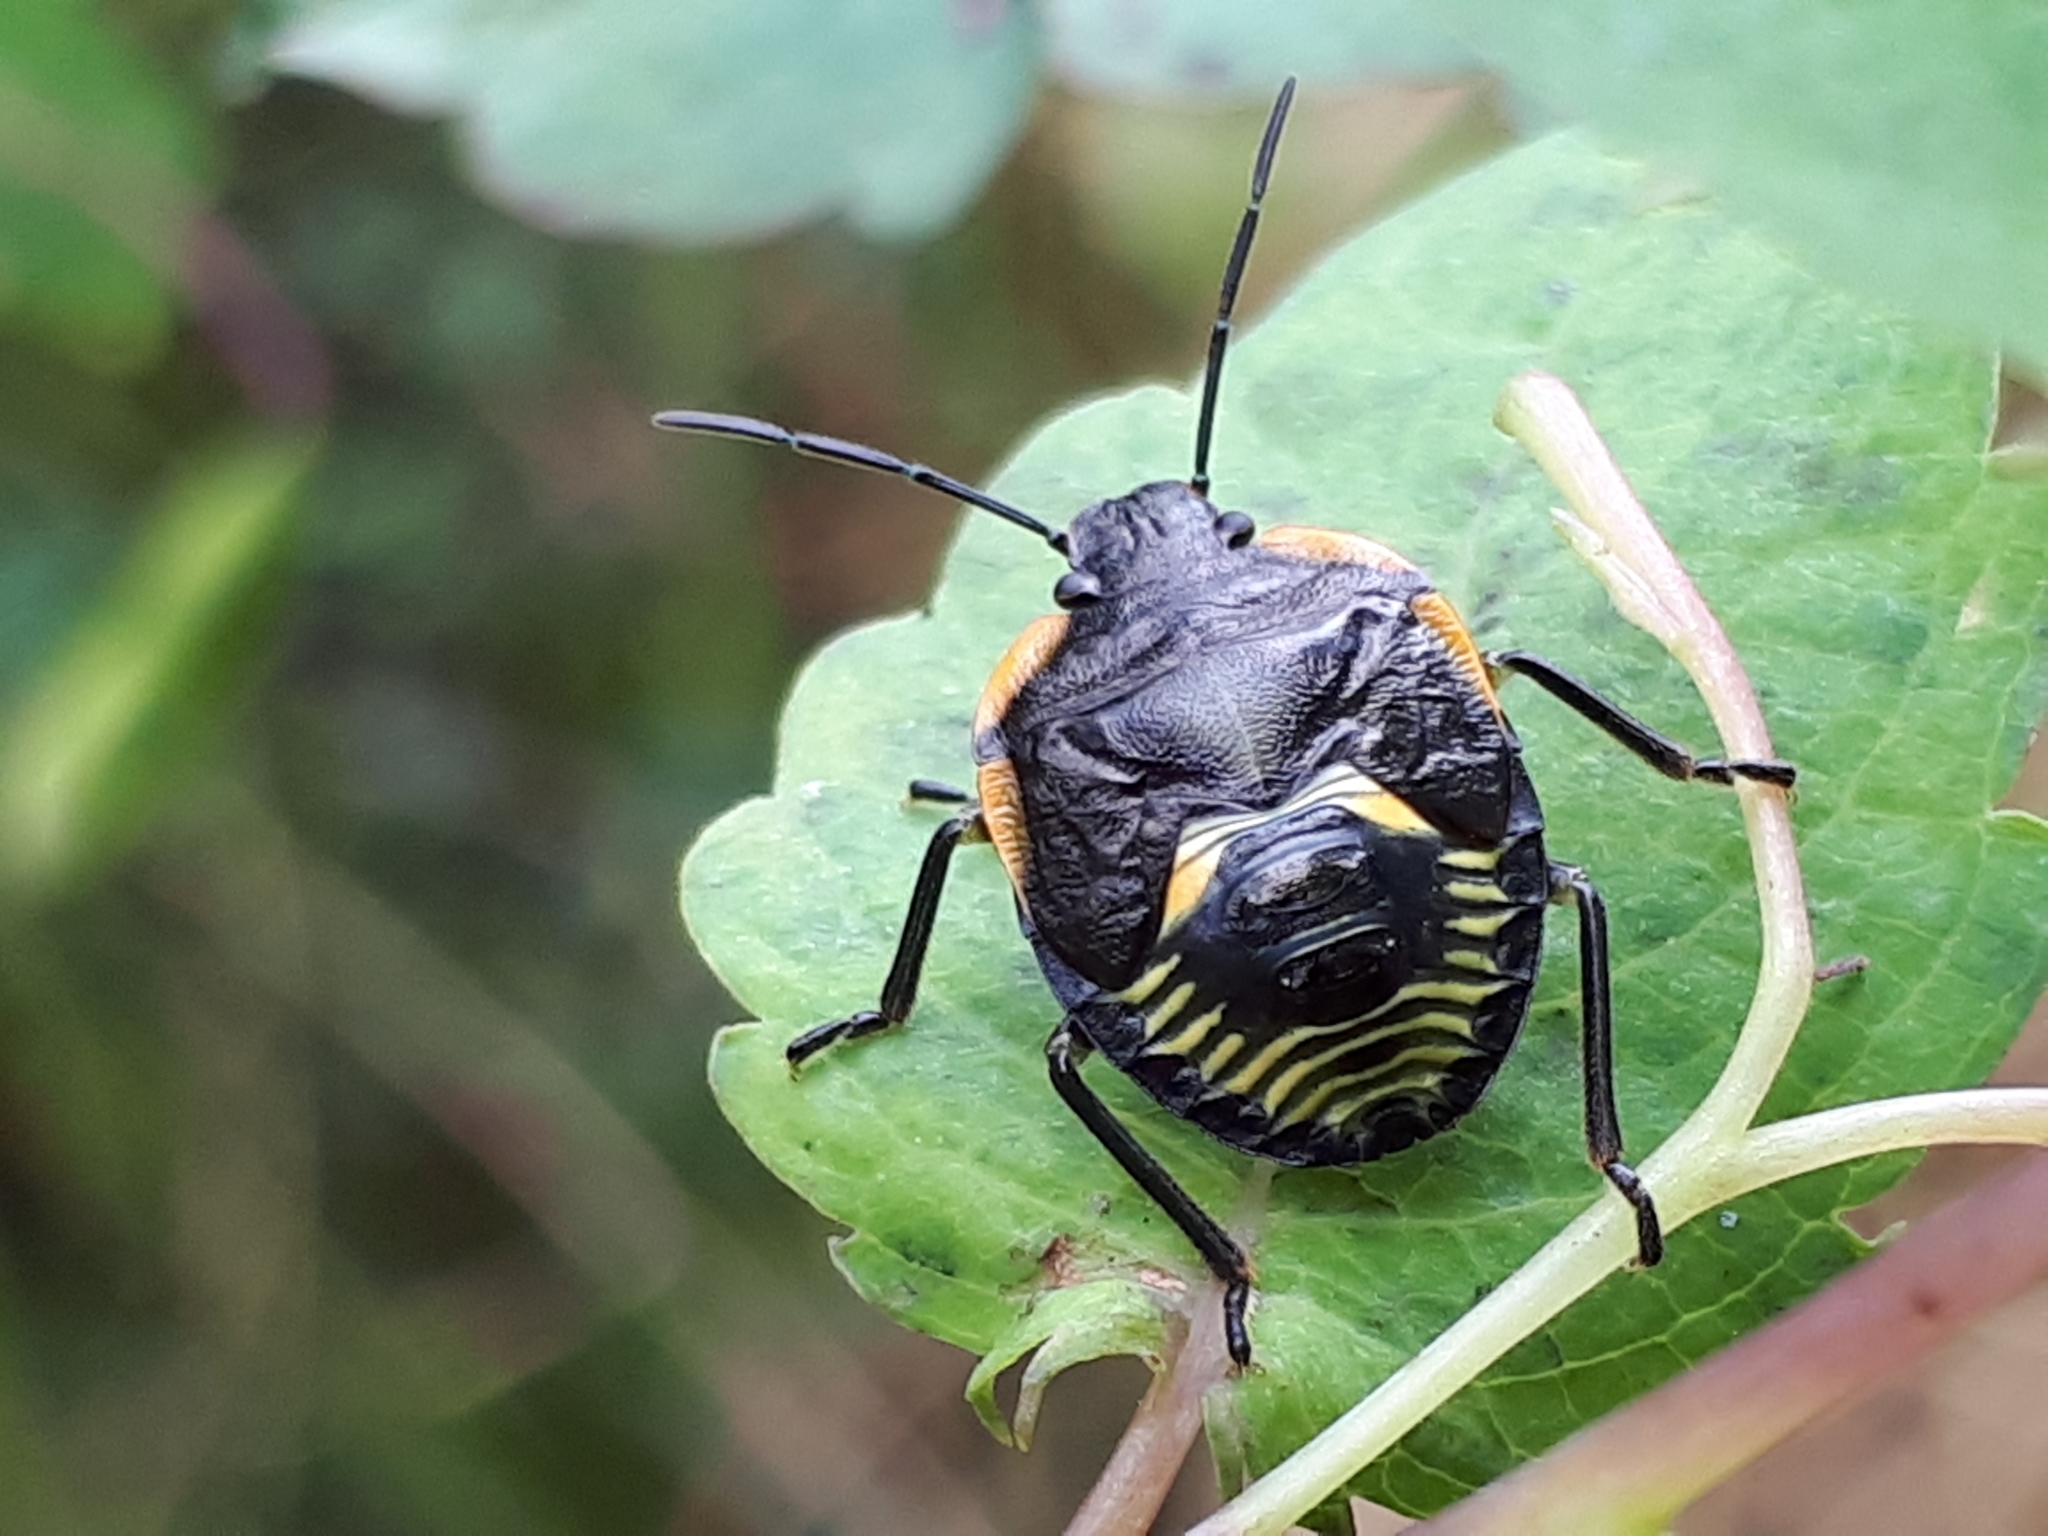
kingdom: Animalia
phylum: Arthropoda
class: Insecta
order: Hemiptera
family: Pentatomidae
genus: Chinavia
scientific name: Chinavia hilaris
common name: Green stink bug
